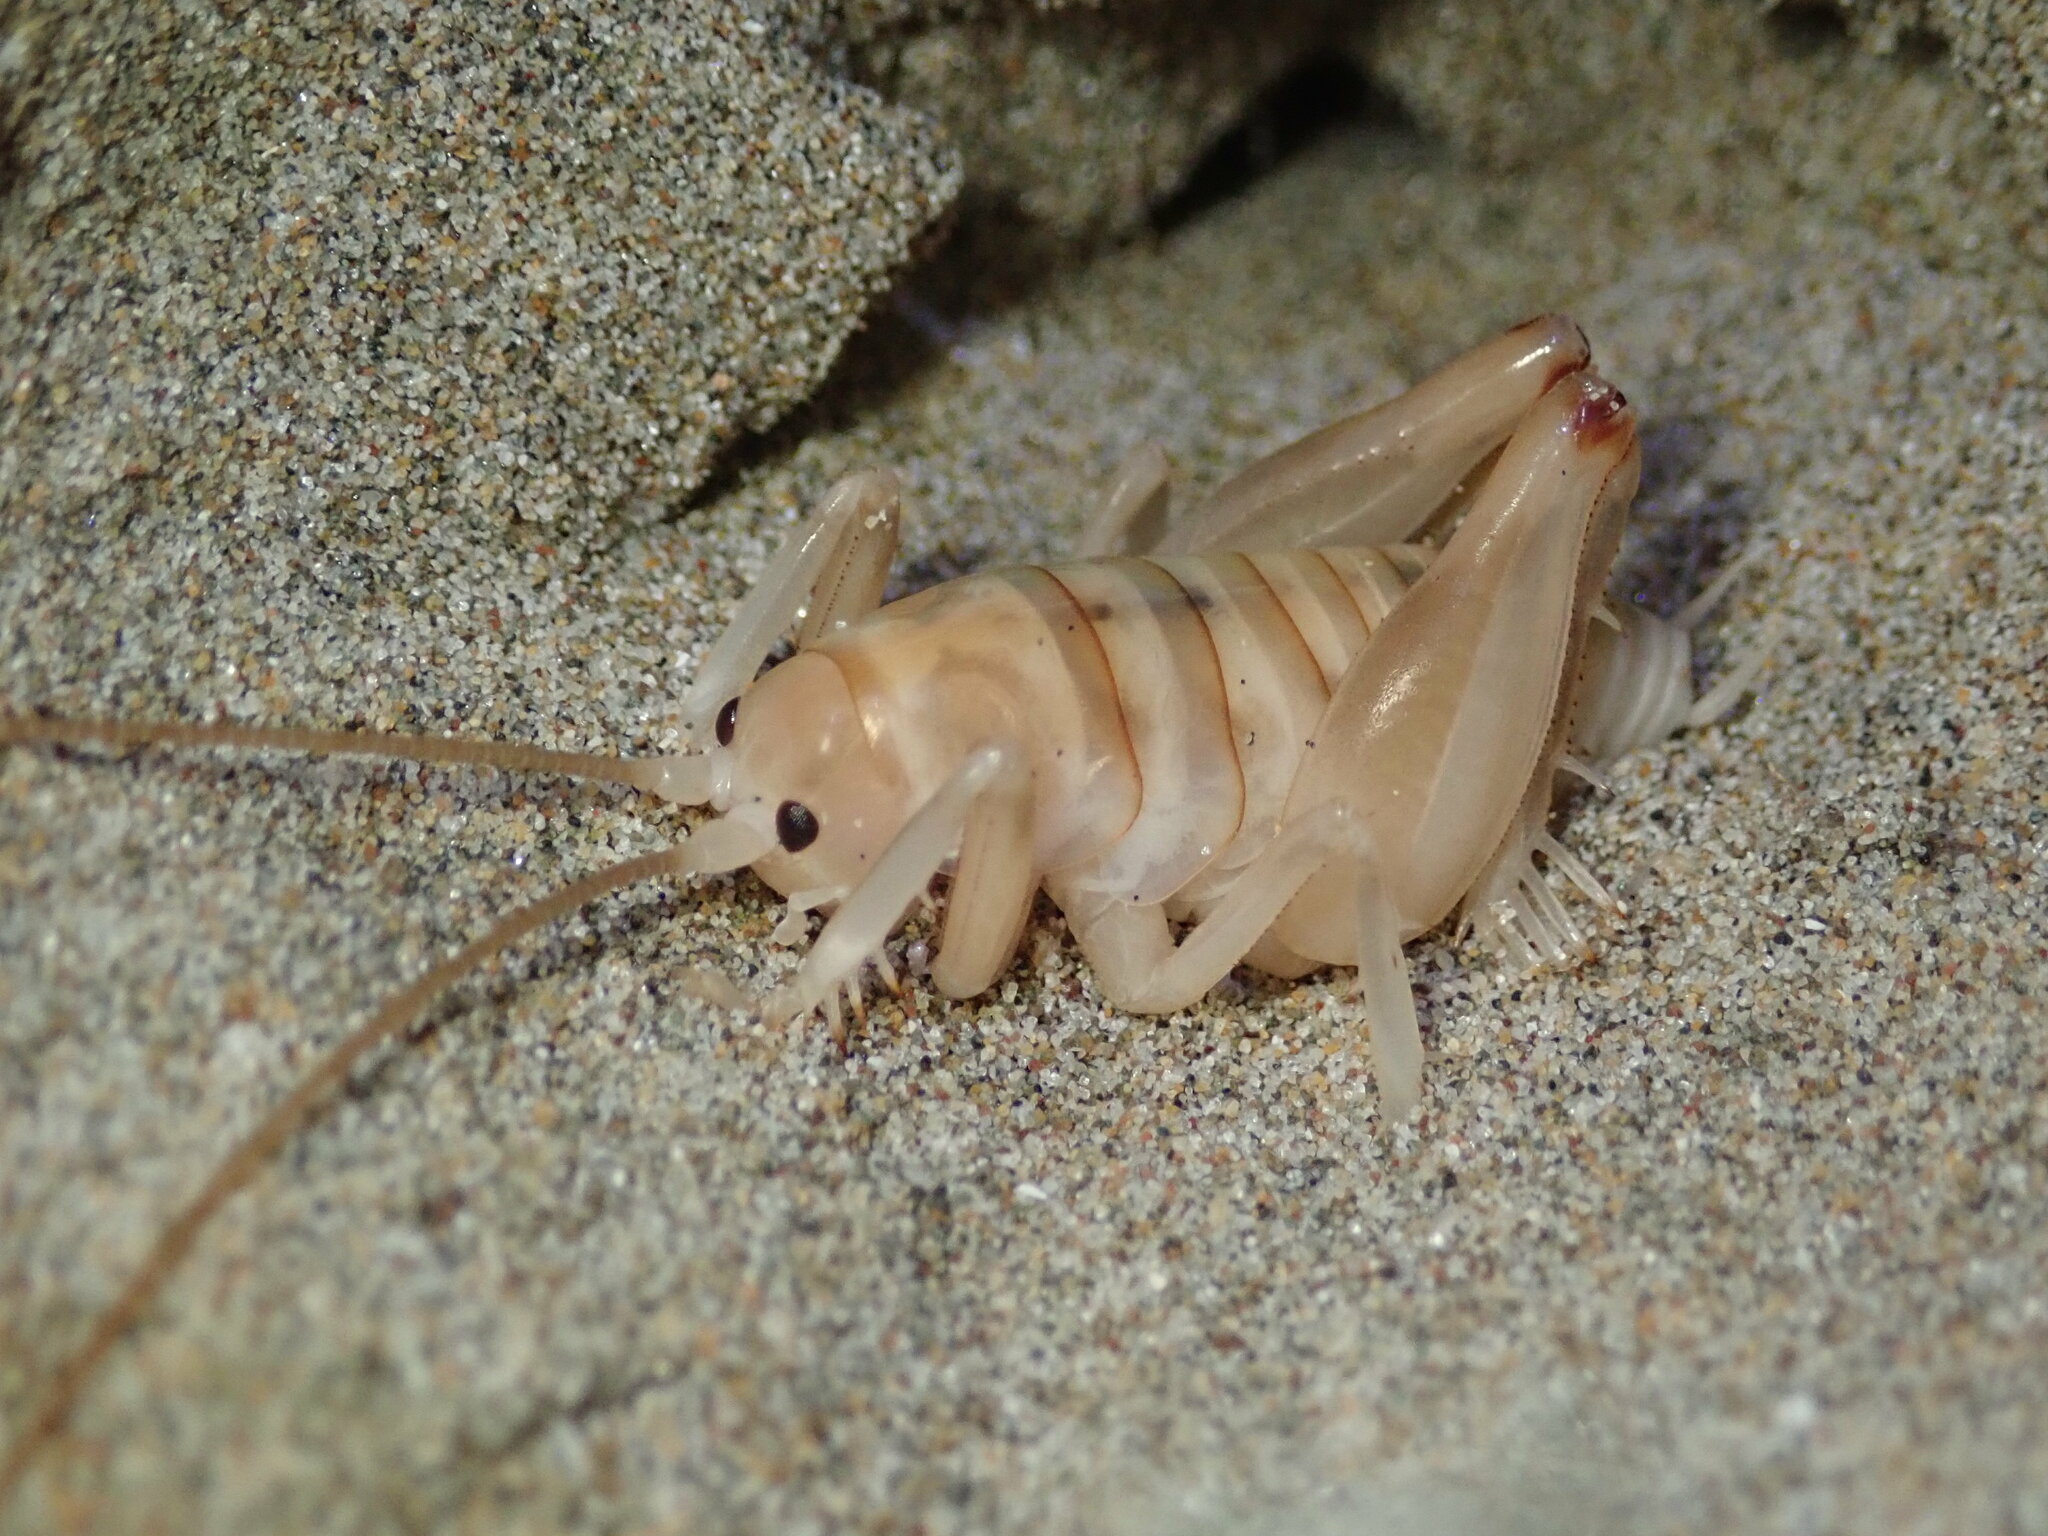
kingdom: Animalia
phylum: Arthropoda
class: Insecta
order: Orthoptera
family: Rhaphidophoridae
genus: Rhachocnemis
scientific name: Rhachocnemis validus
